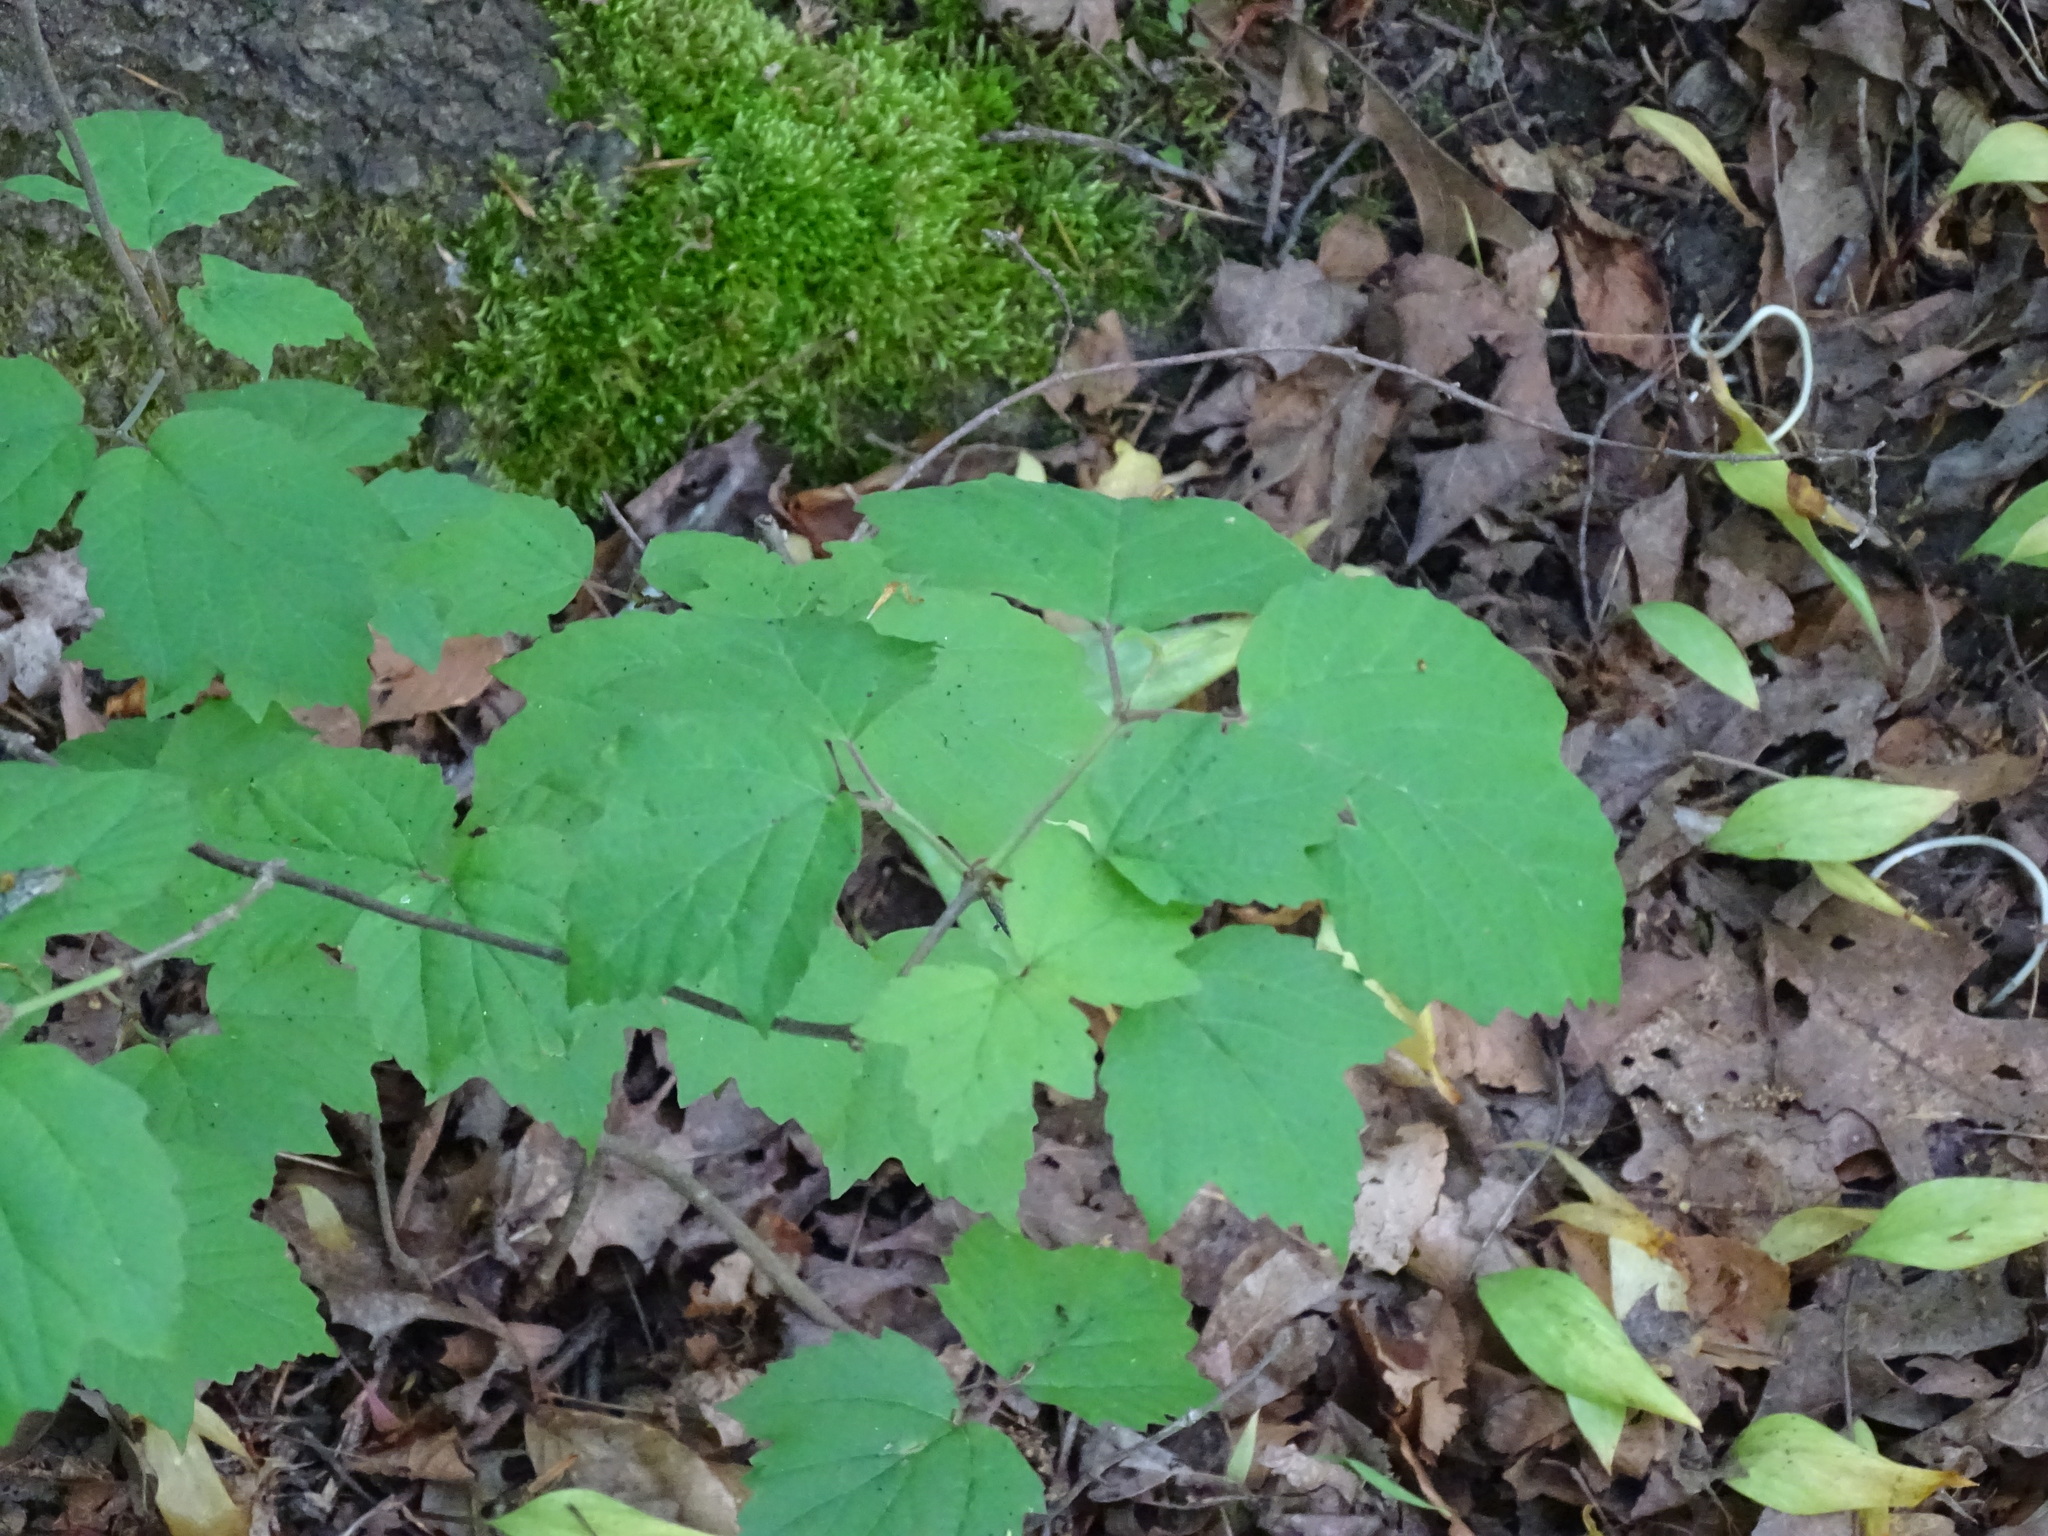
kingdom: Plantae
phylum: Tracheophyta
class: Magnoliopsida
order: Dipsacales
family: Viburnaceae
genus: Viburnum
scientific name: Viburnum acerifolium
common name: Dockmackie
